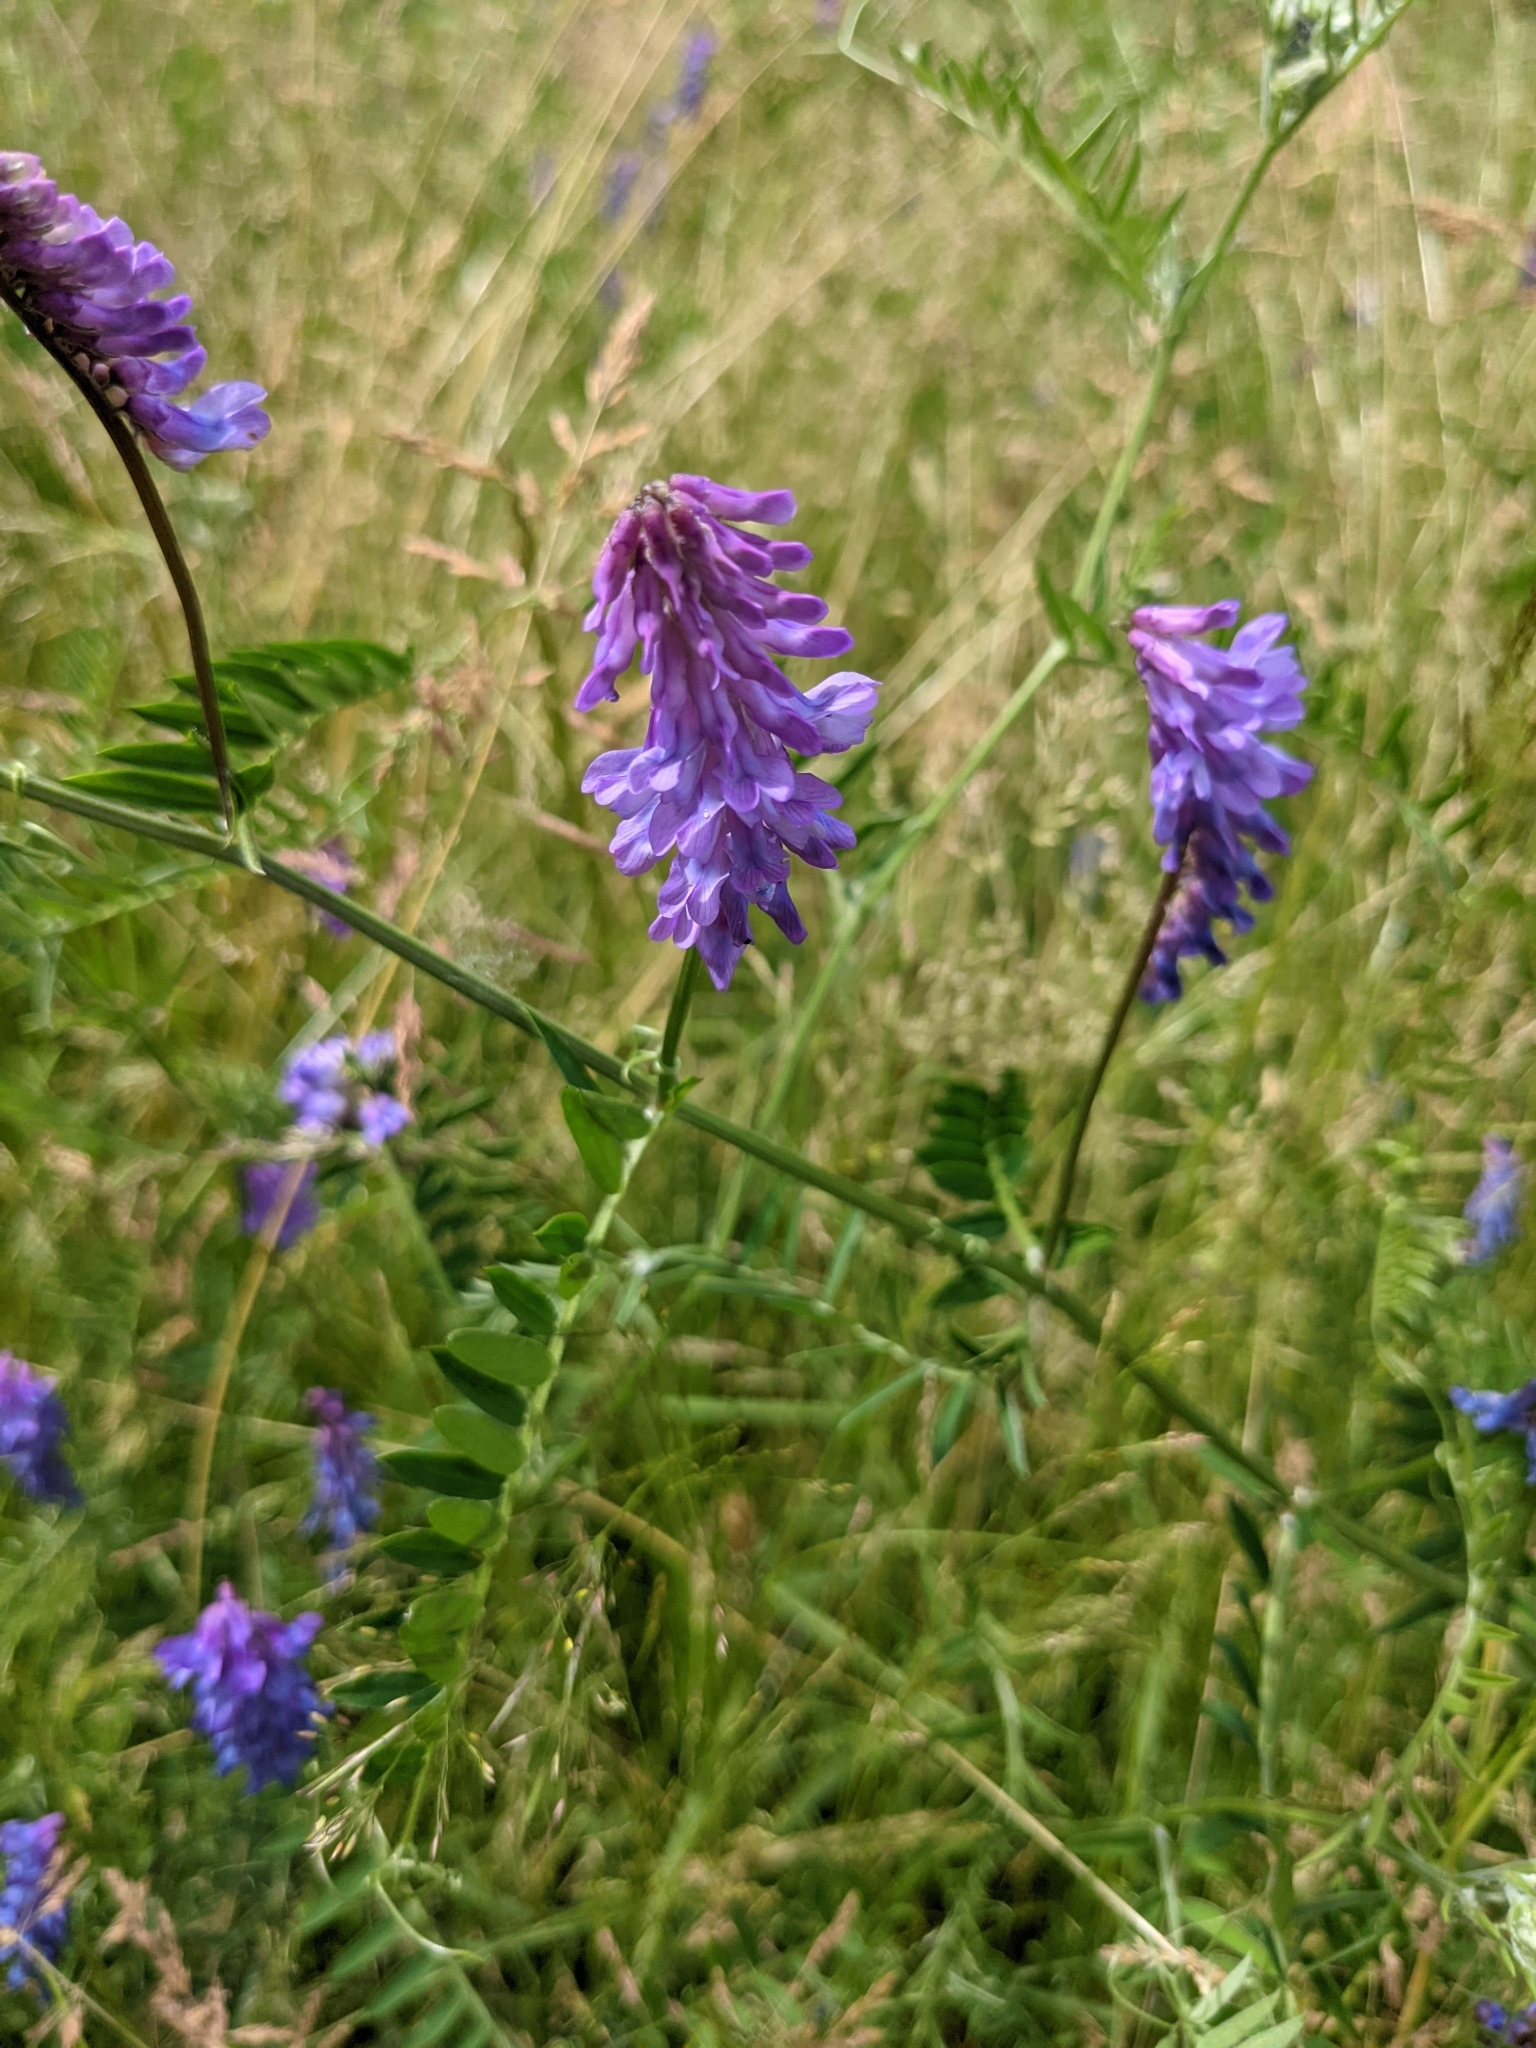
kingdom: Plantae
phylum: Tracheophyta
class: Magnoliopsida
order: Fabales
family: Fabaceae
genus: Vicia
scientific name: Vicia cracca
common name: Bird vetch
